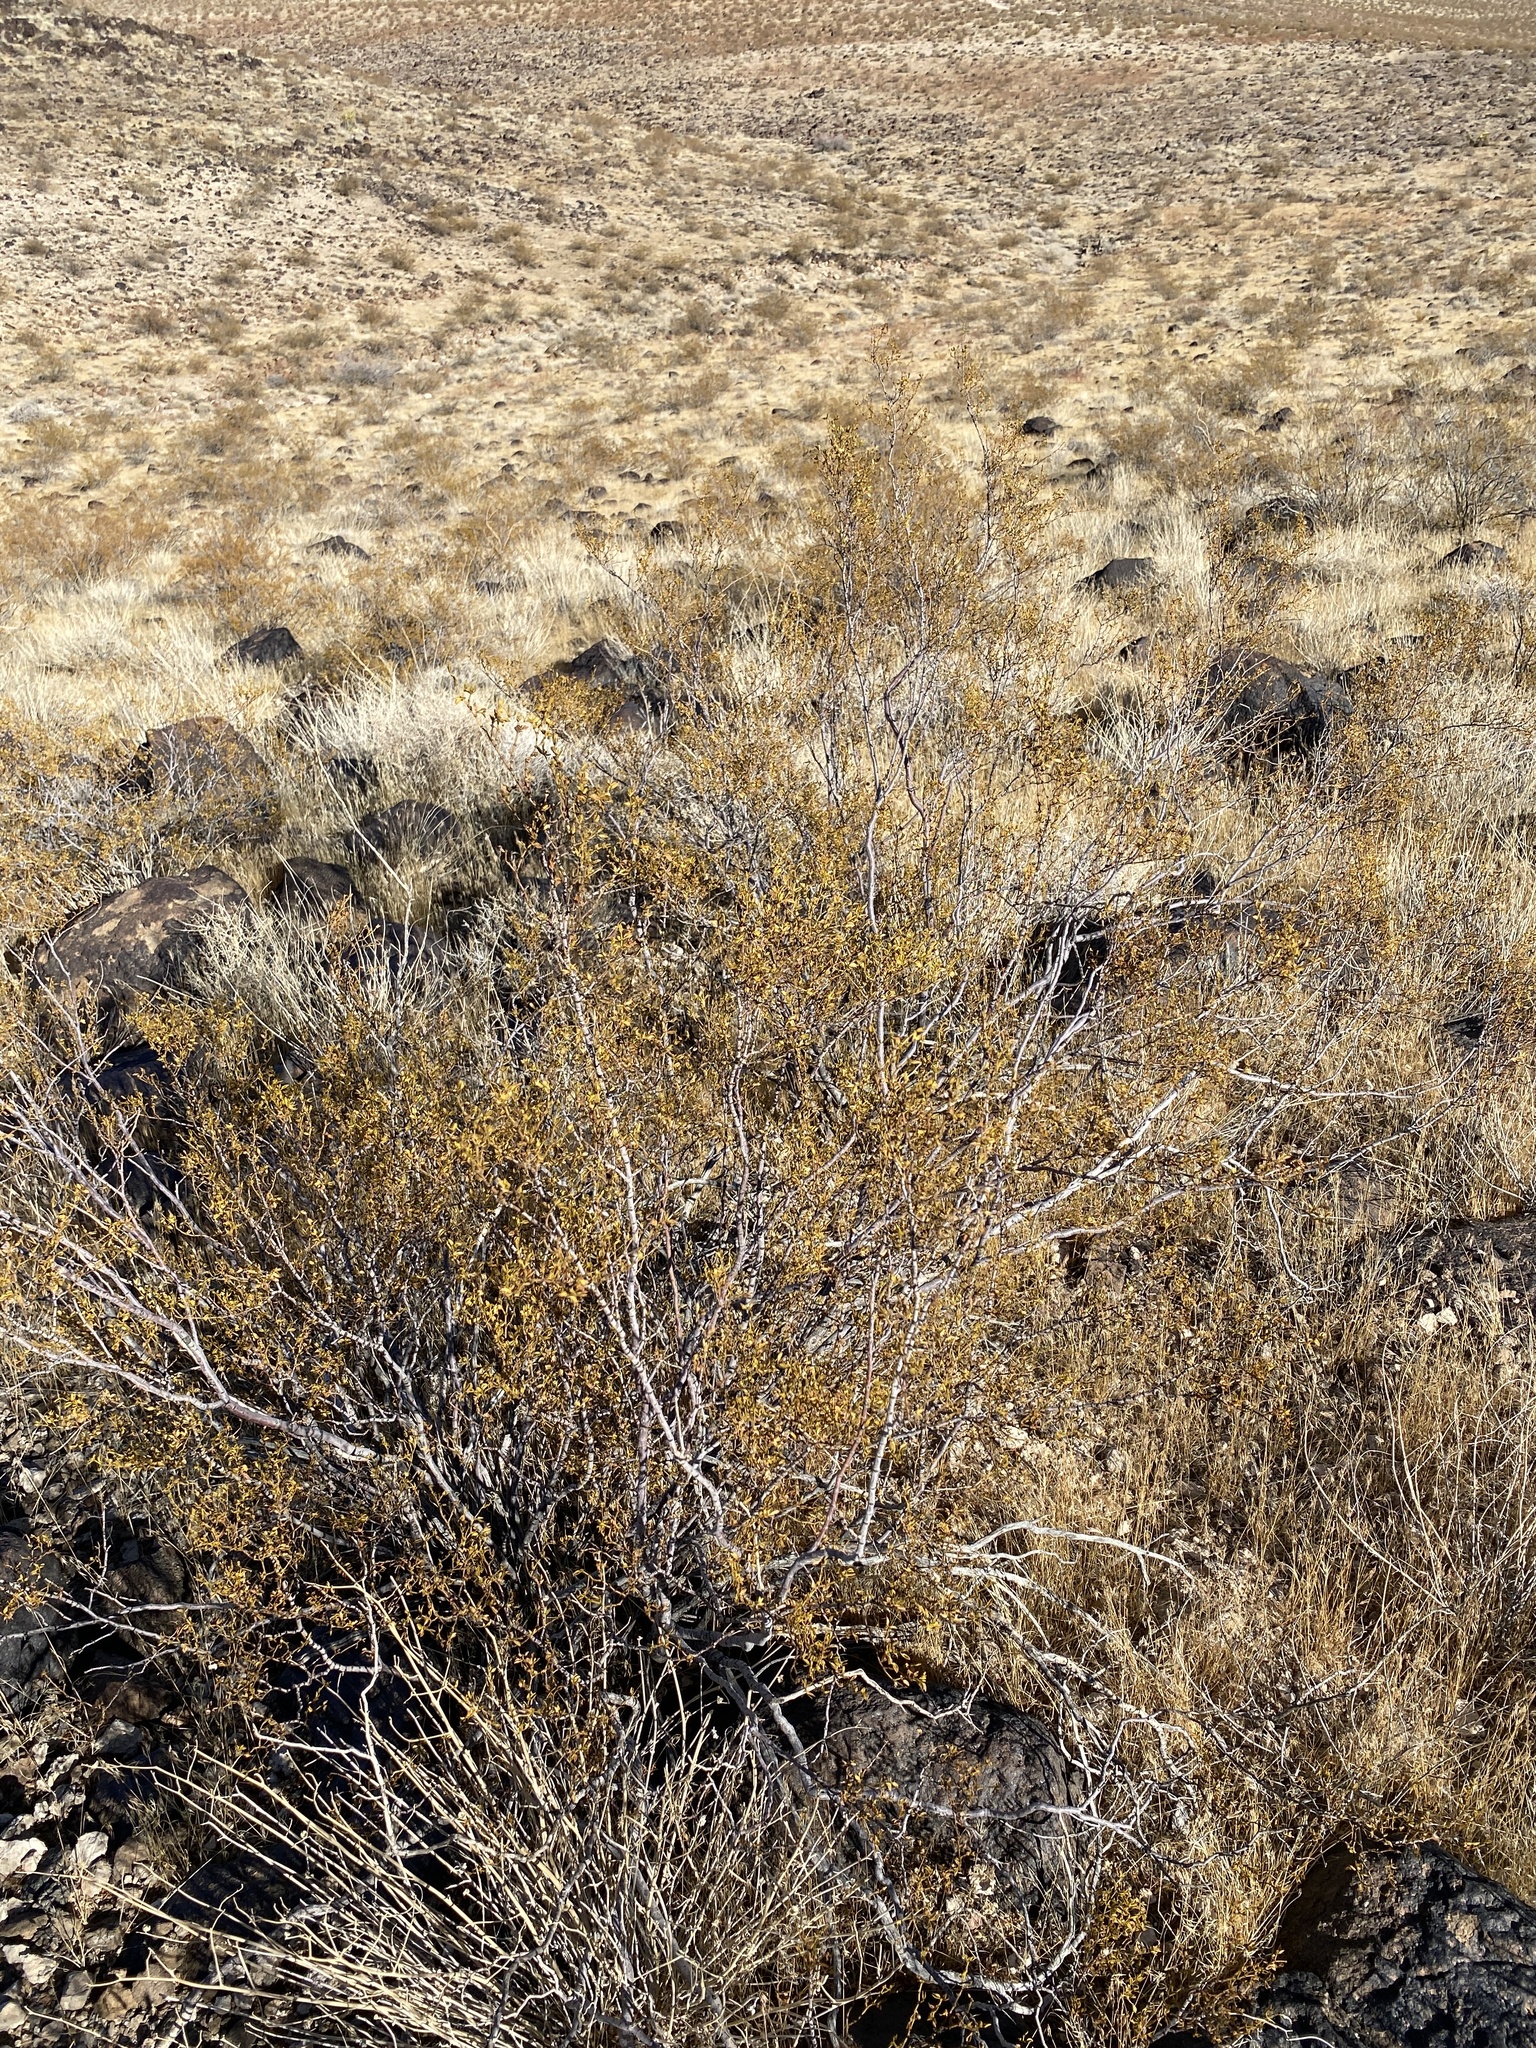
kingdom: Plantae
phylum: Tracheophyta
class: Magnoliopsida
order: Zygophyllales
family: Zygophyllaceae
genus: Larrea
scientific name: Larrea tridentata
